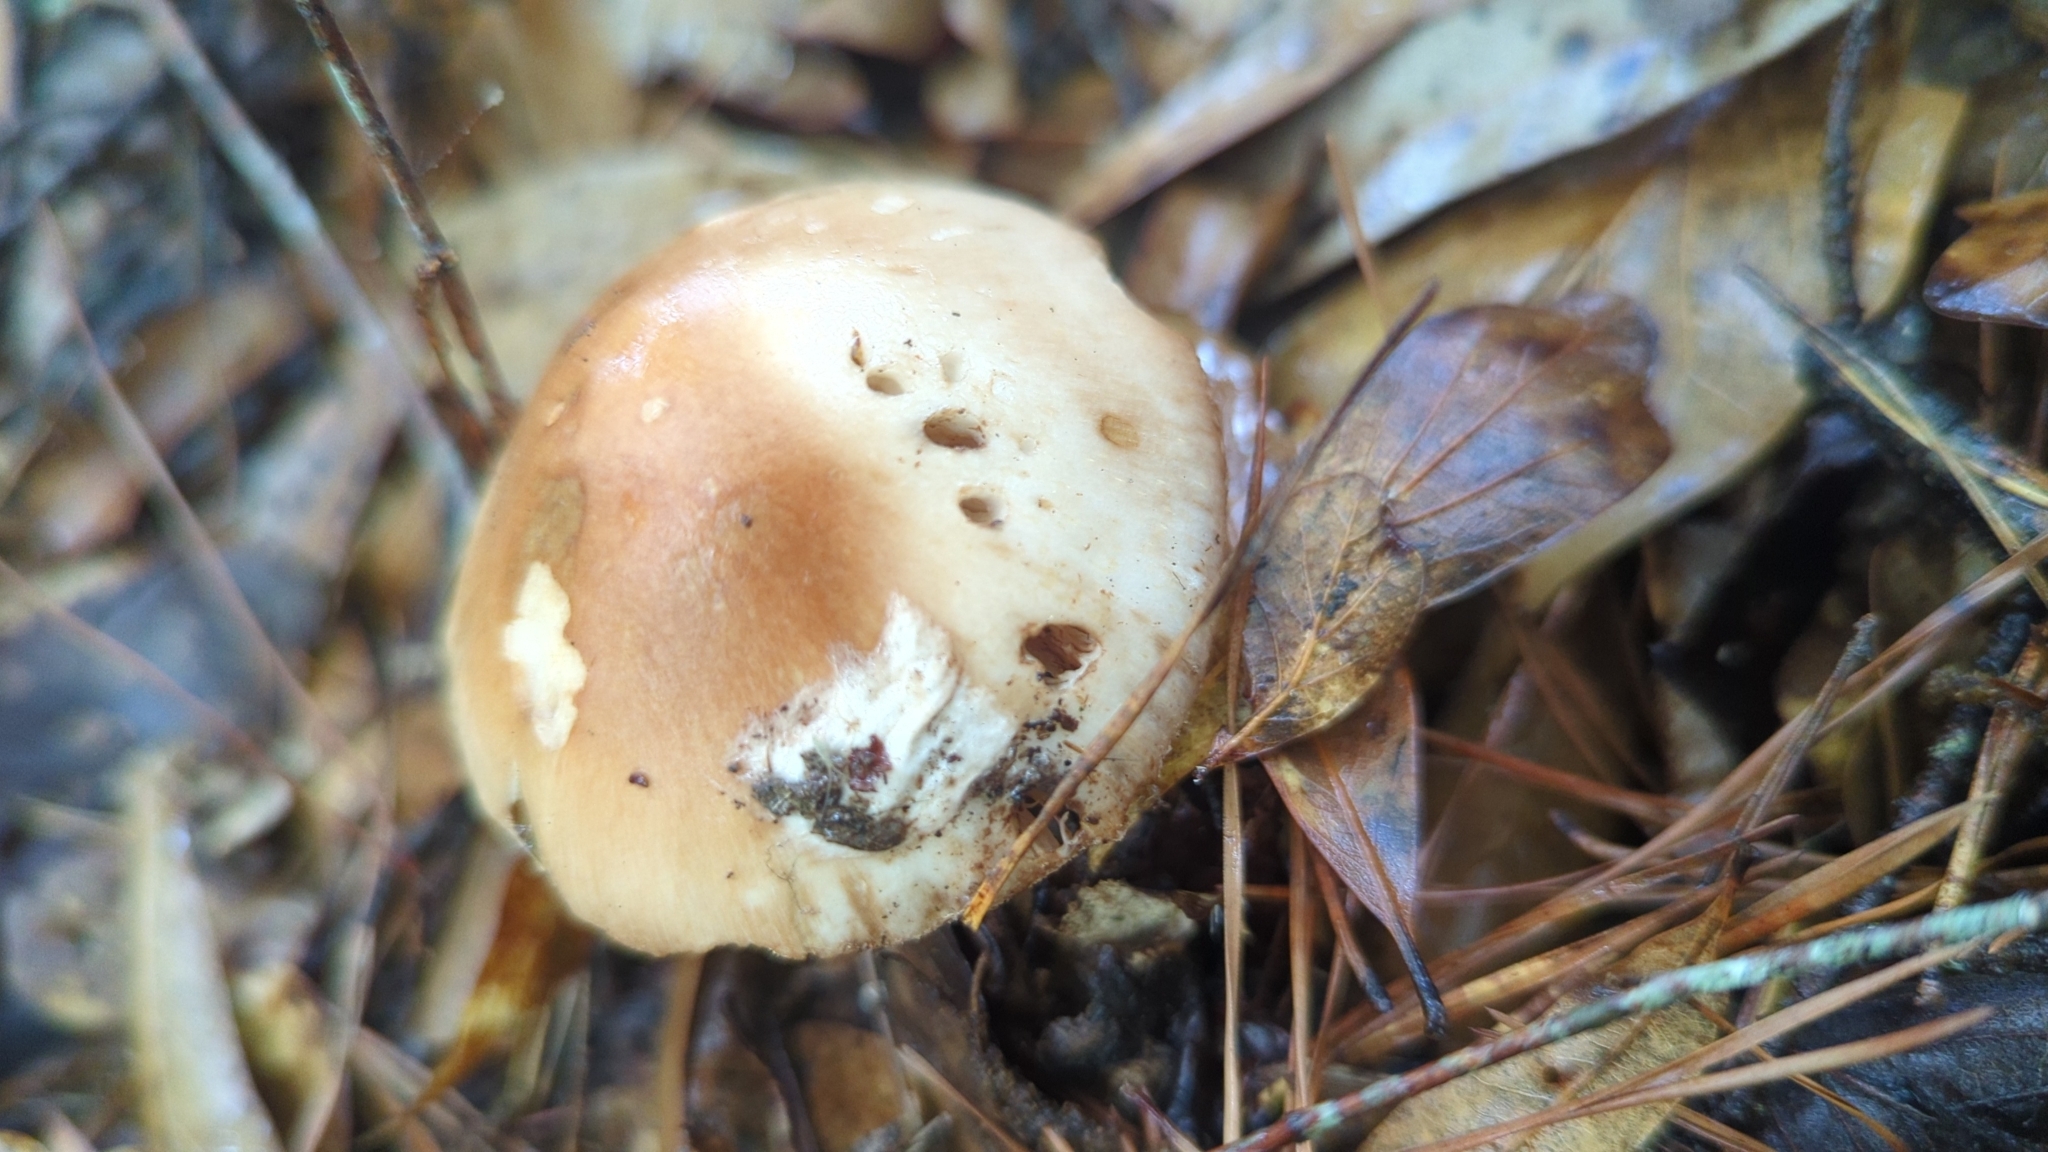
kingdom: Fungi
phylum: Basidiomycota
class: Agaricomycetes
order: Agaricales
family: Amanitaceae
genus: Amanita
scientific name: Amanita fulva
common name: Tawny grisette
